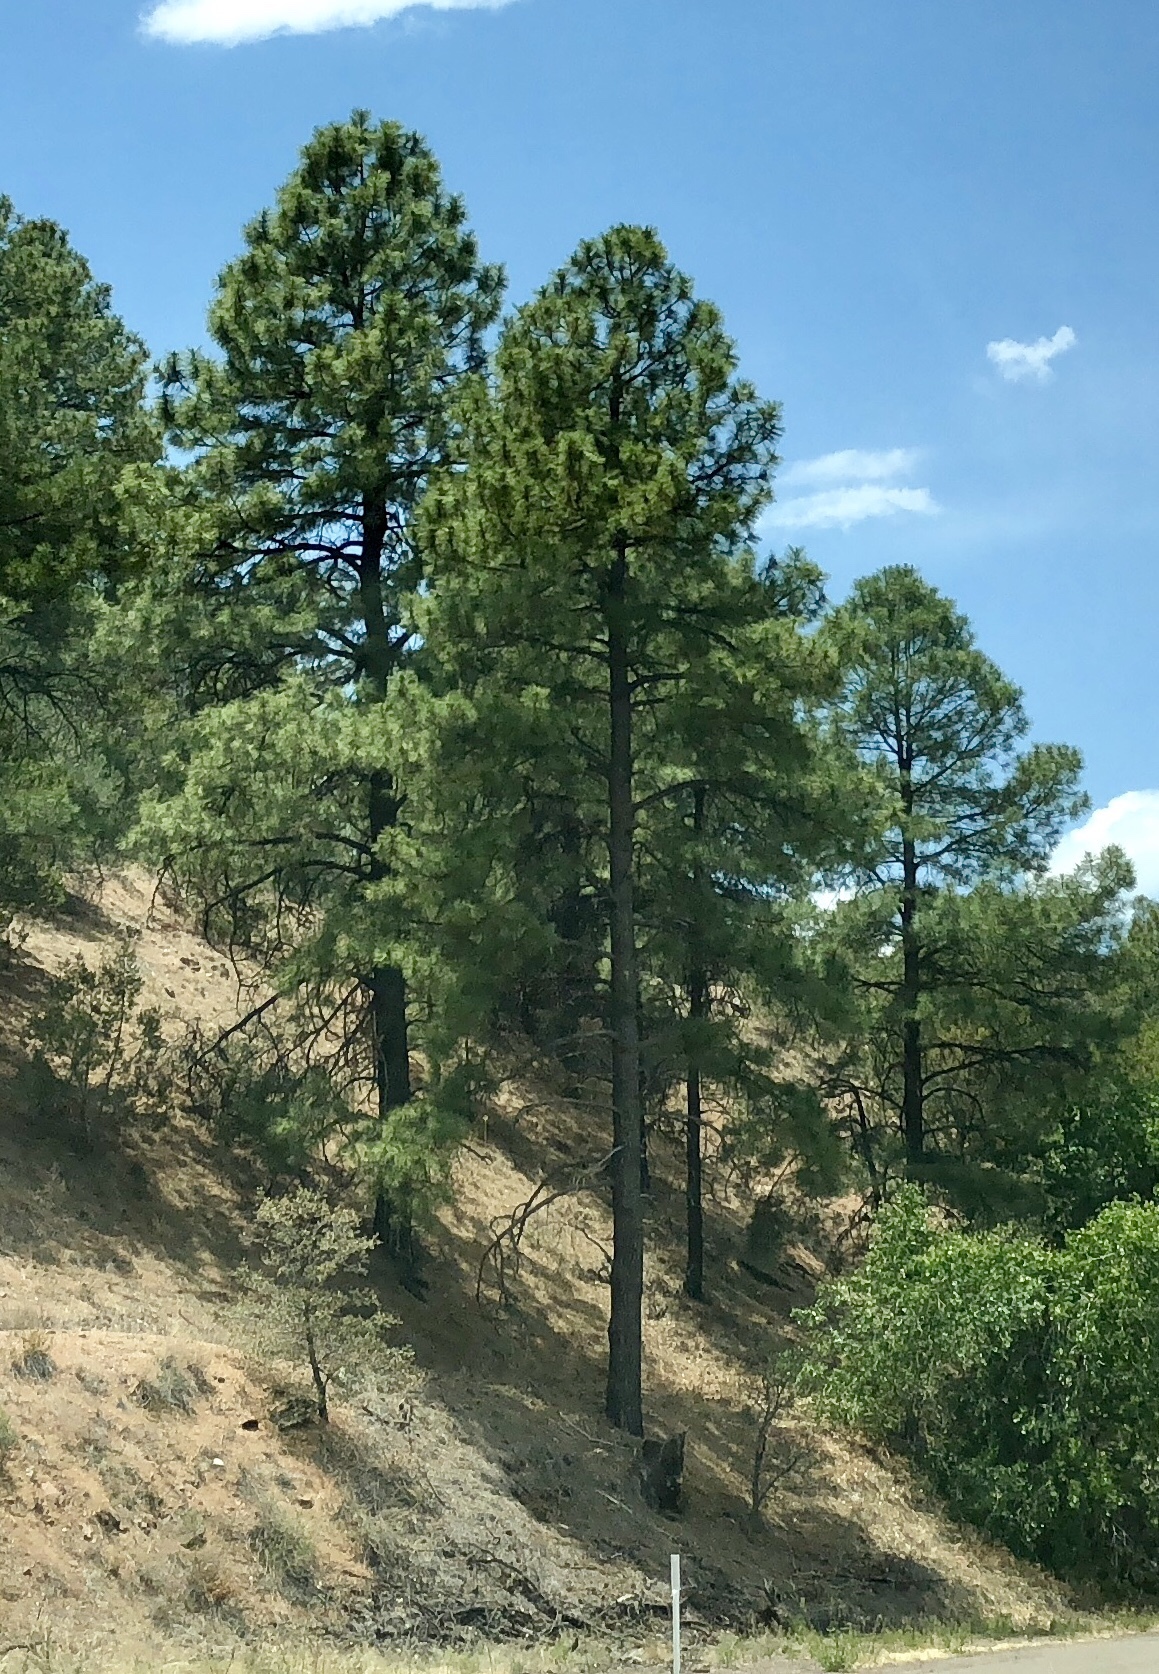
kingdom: Plantae
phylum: Tracheophyta
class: Pinopsida
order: Pinales
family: Pinaceae
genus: Pinus
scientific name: Pinus ponderosa
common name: Western yellow-pine
